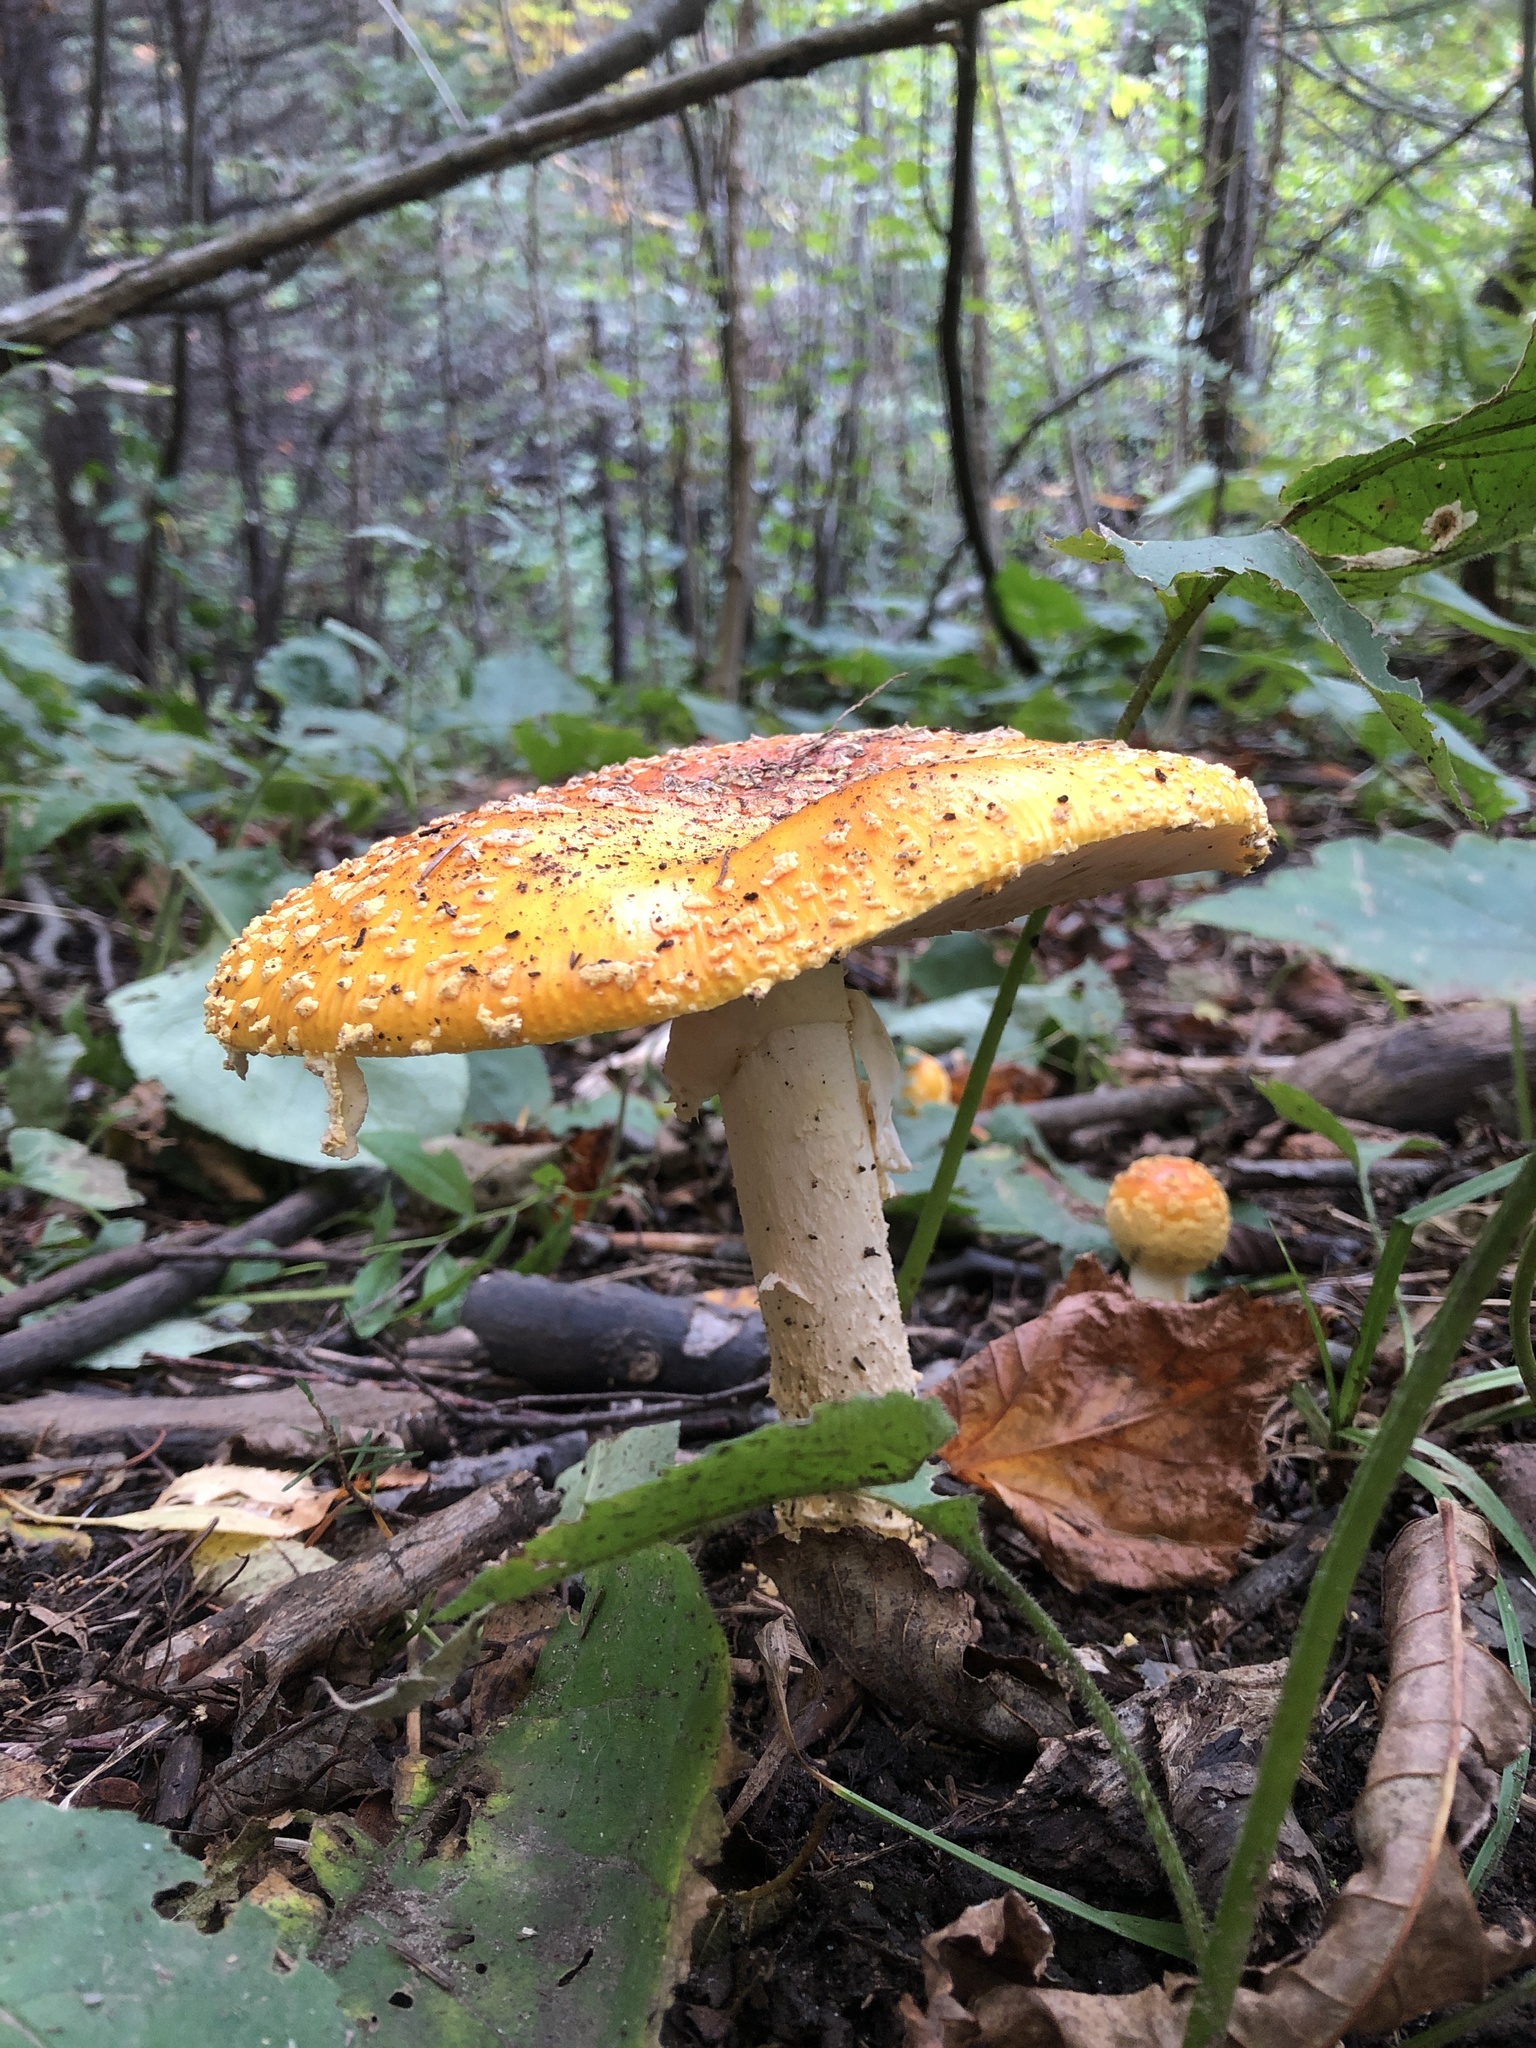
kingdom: Fungi
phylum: Basidiomycota
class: Agaricomycetes
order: Agaricales
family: Amanitaceae
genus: Amanita
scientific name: Amanita muscaria
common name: Fly agaric
